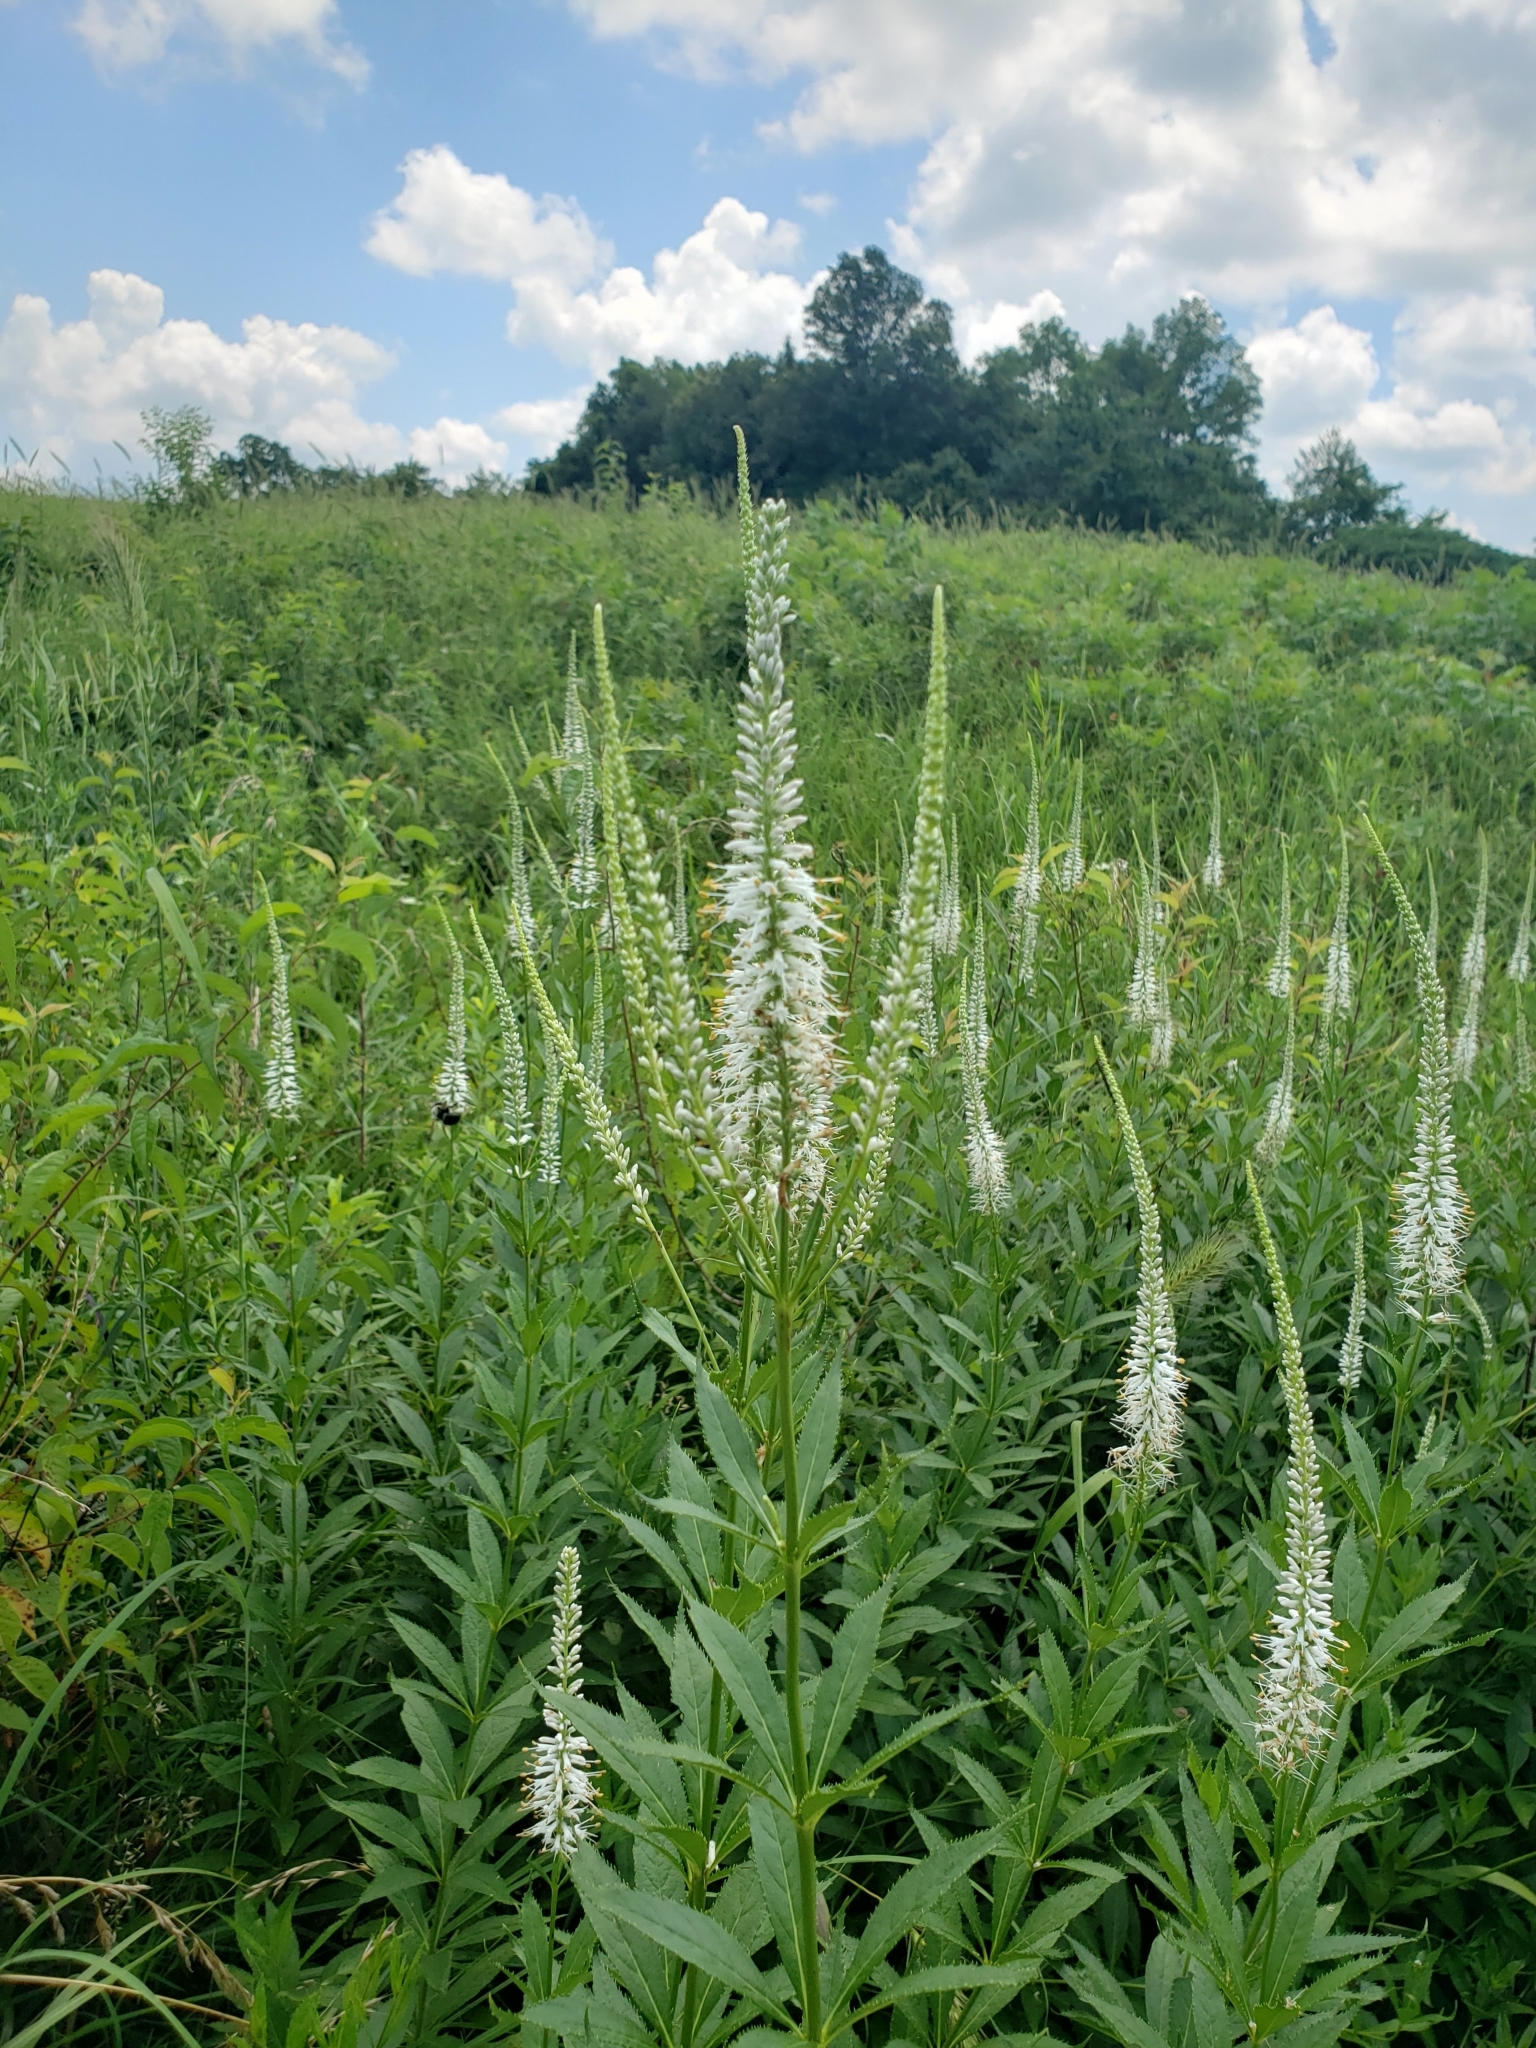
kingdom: Plantae
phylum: Tracheophyta
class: Magnoliopsida
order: Lamiales
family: Plantaginaceae
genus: Veronicastrum
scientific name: Veronicastrum virginicum
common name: Blackroot
